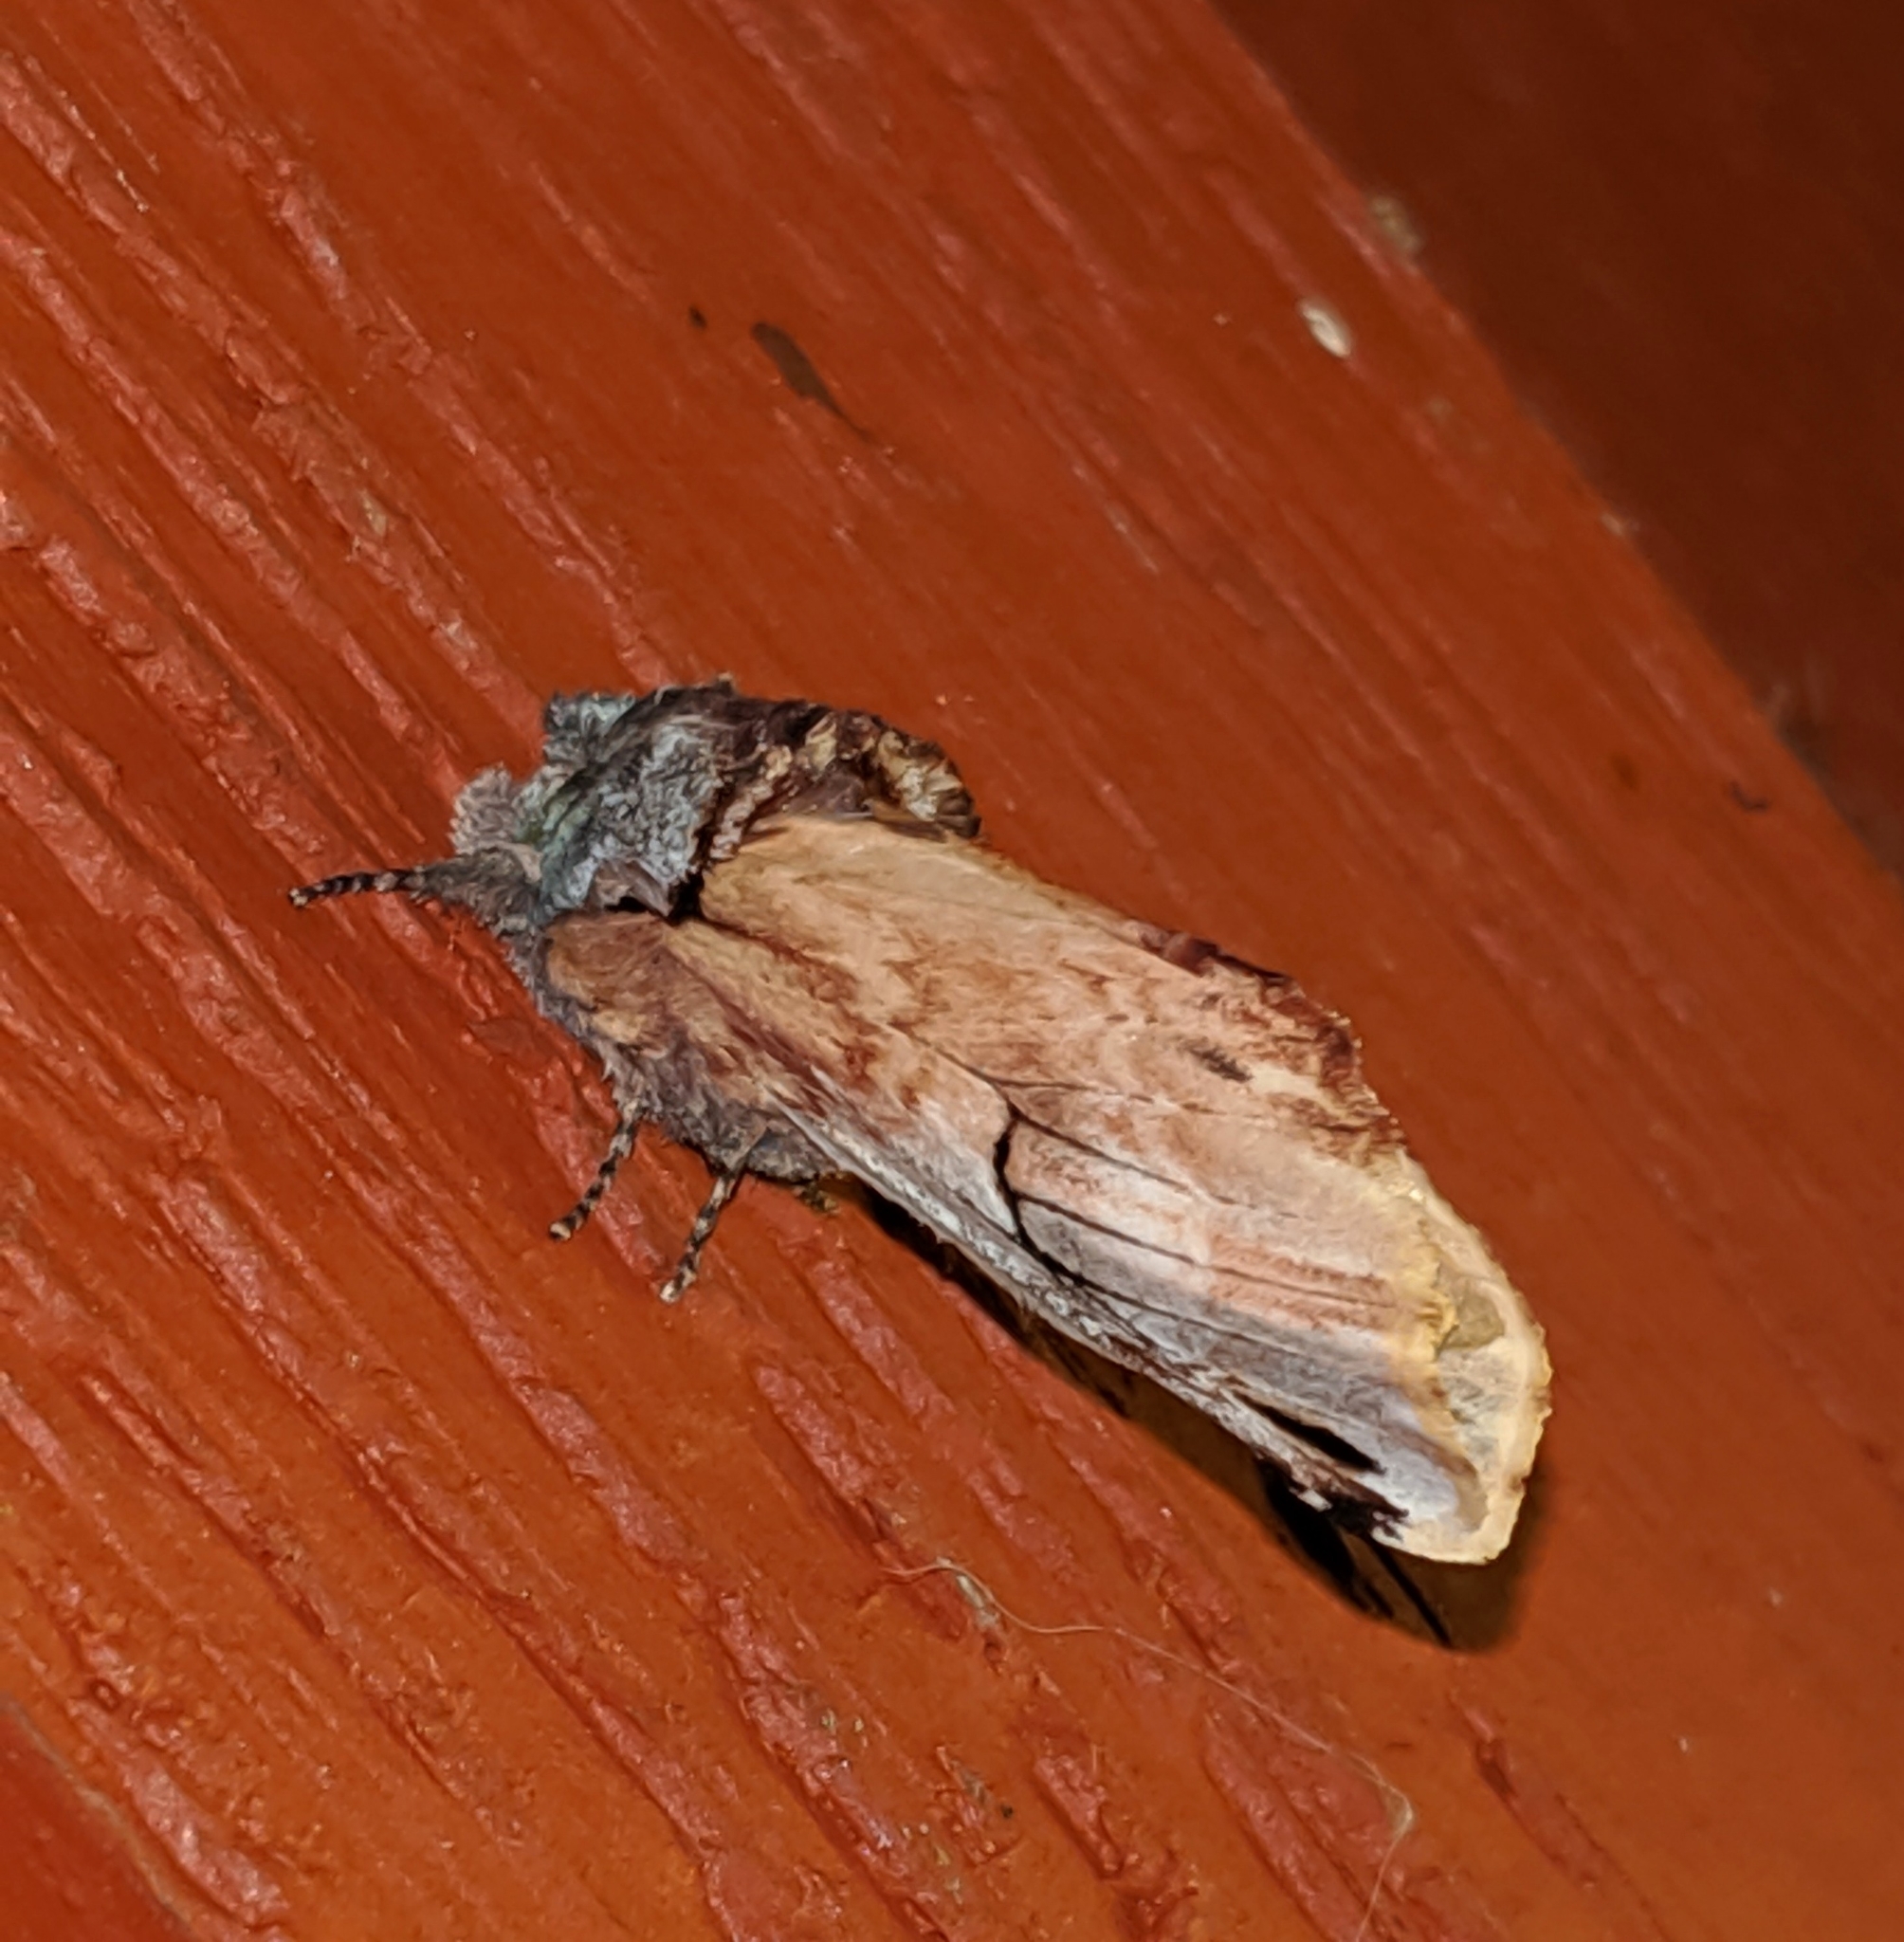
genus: Ianassa
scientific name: Ianassa
